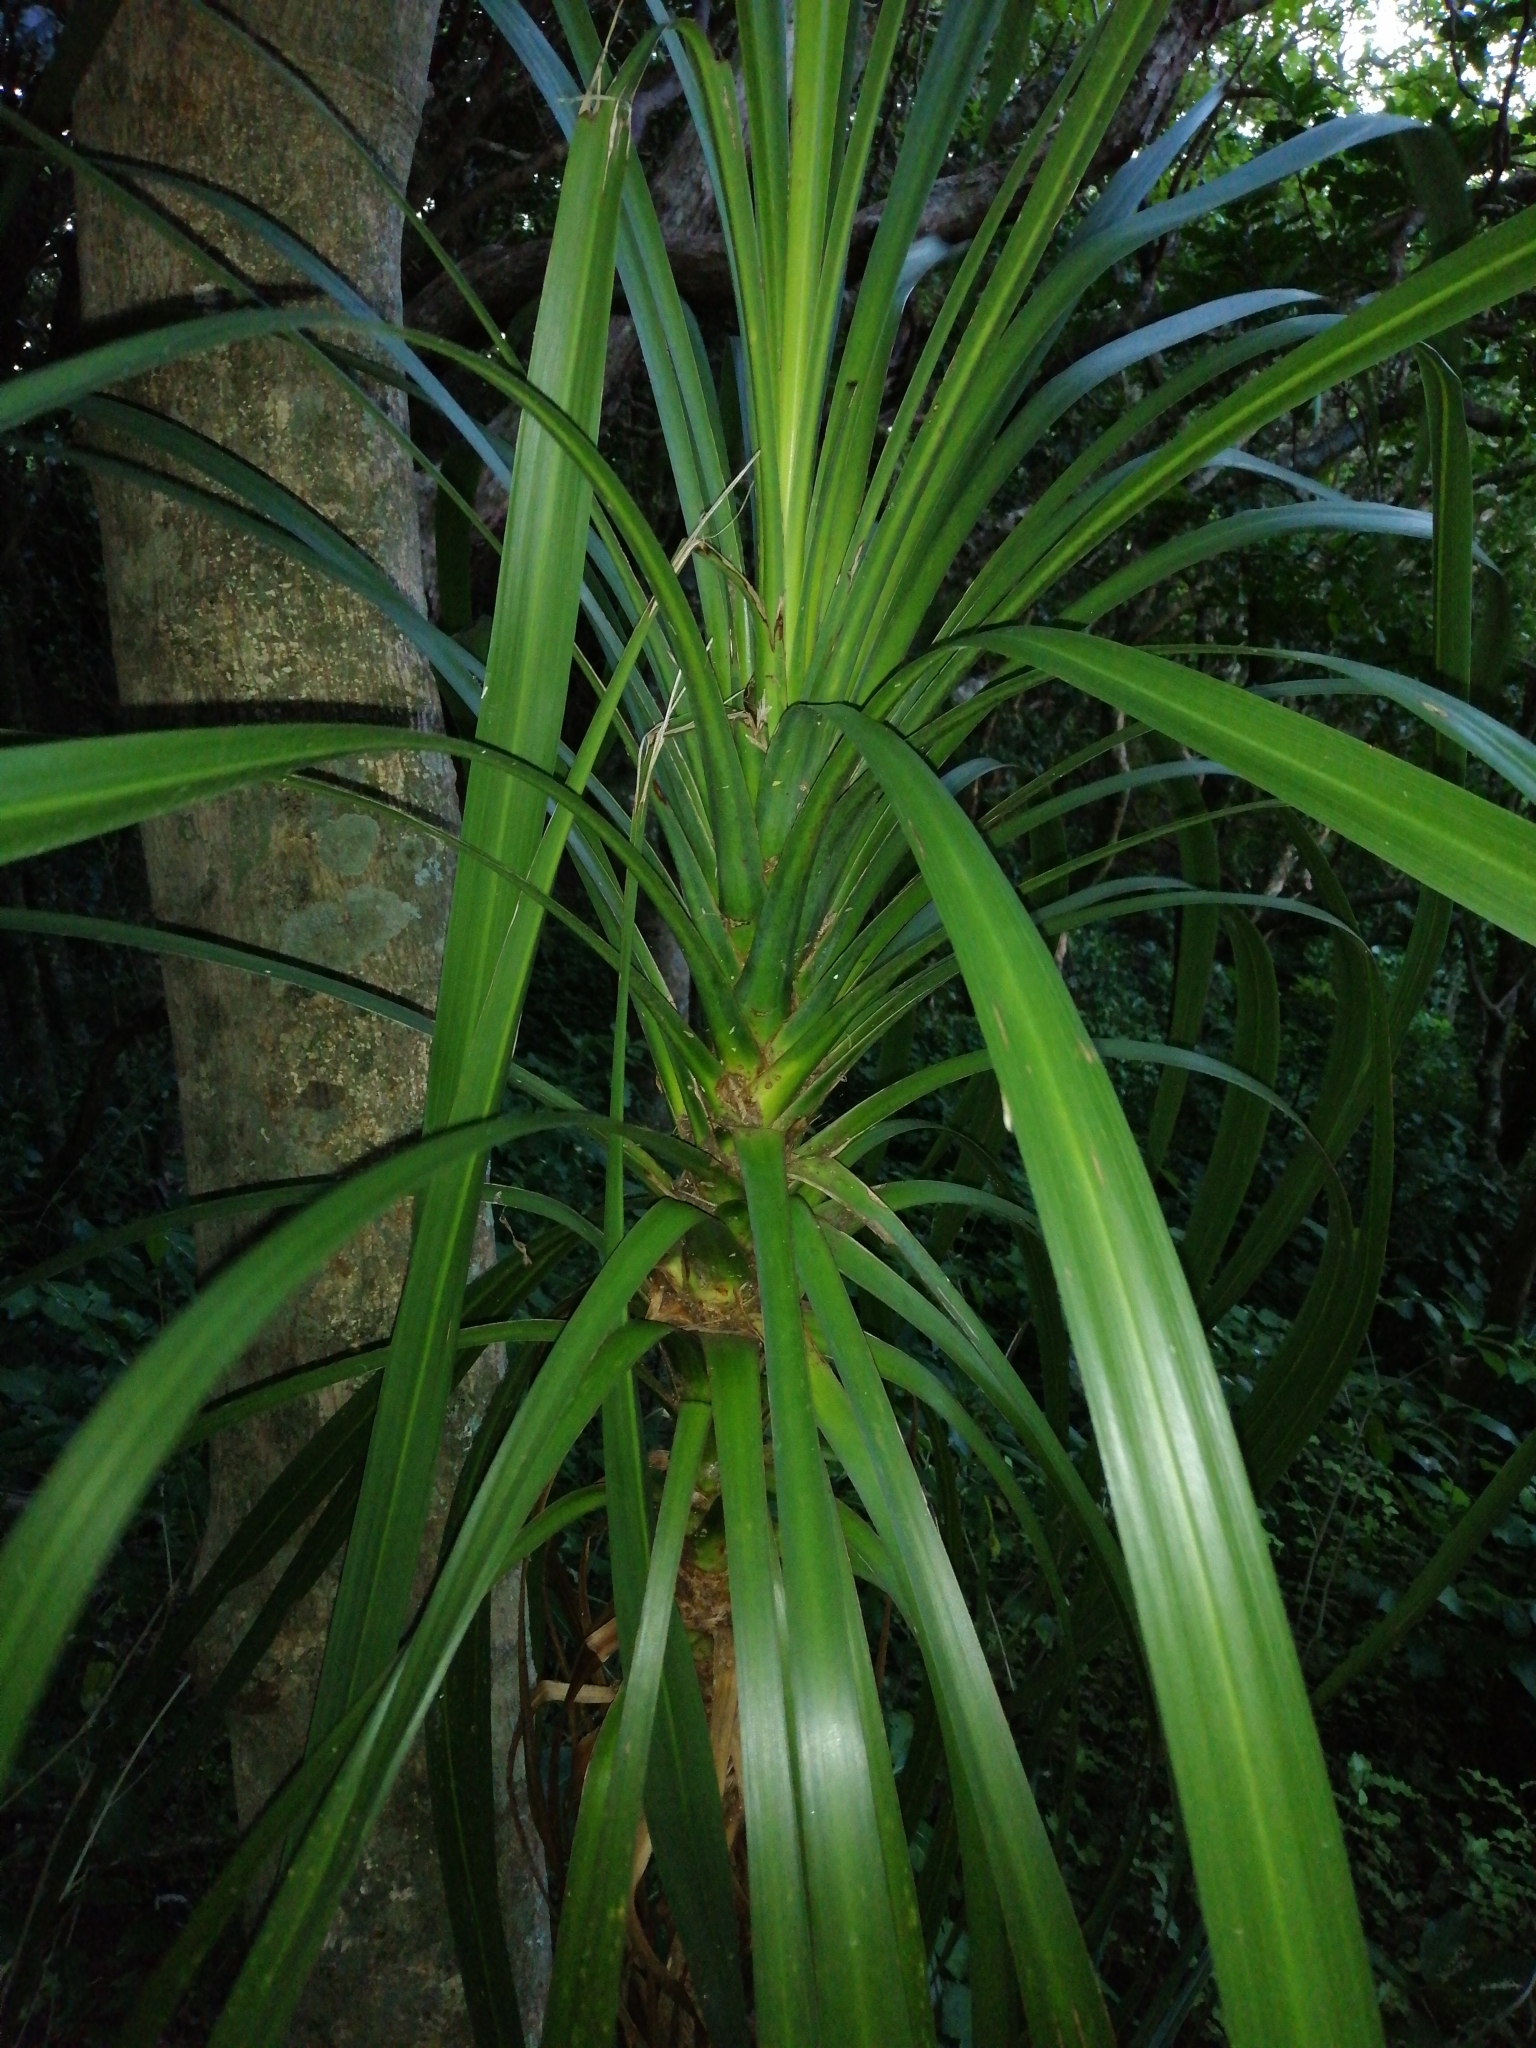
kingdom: Plantae
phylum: Tracheophyta
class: Liliopsida
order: Asparagales
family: Asparagaceae
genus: Cordyline
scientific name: Cordyline australis
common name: Cabbage-palm
